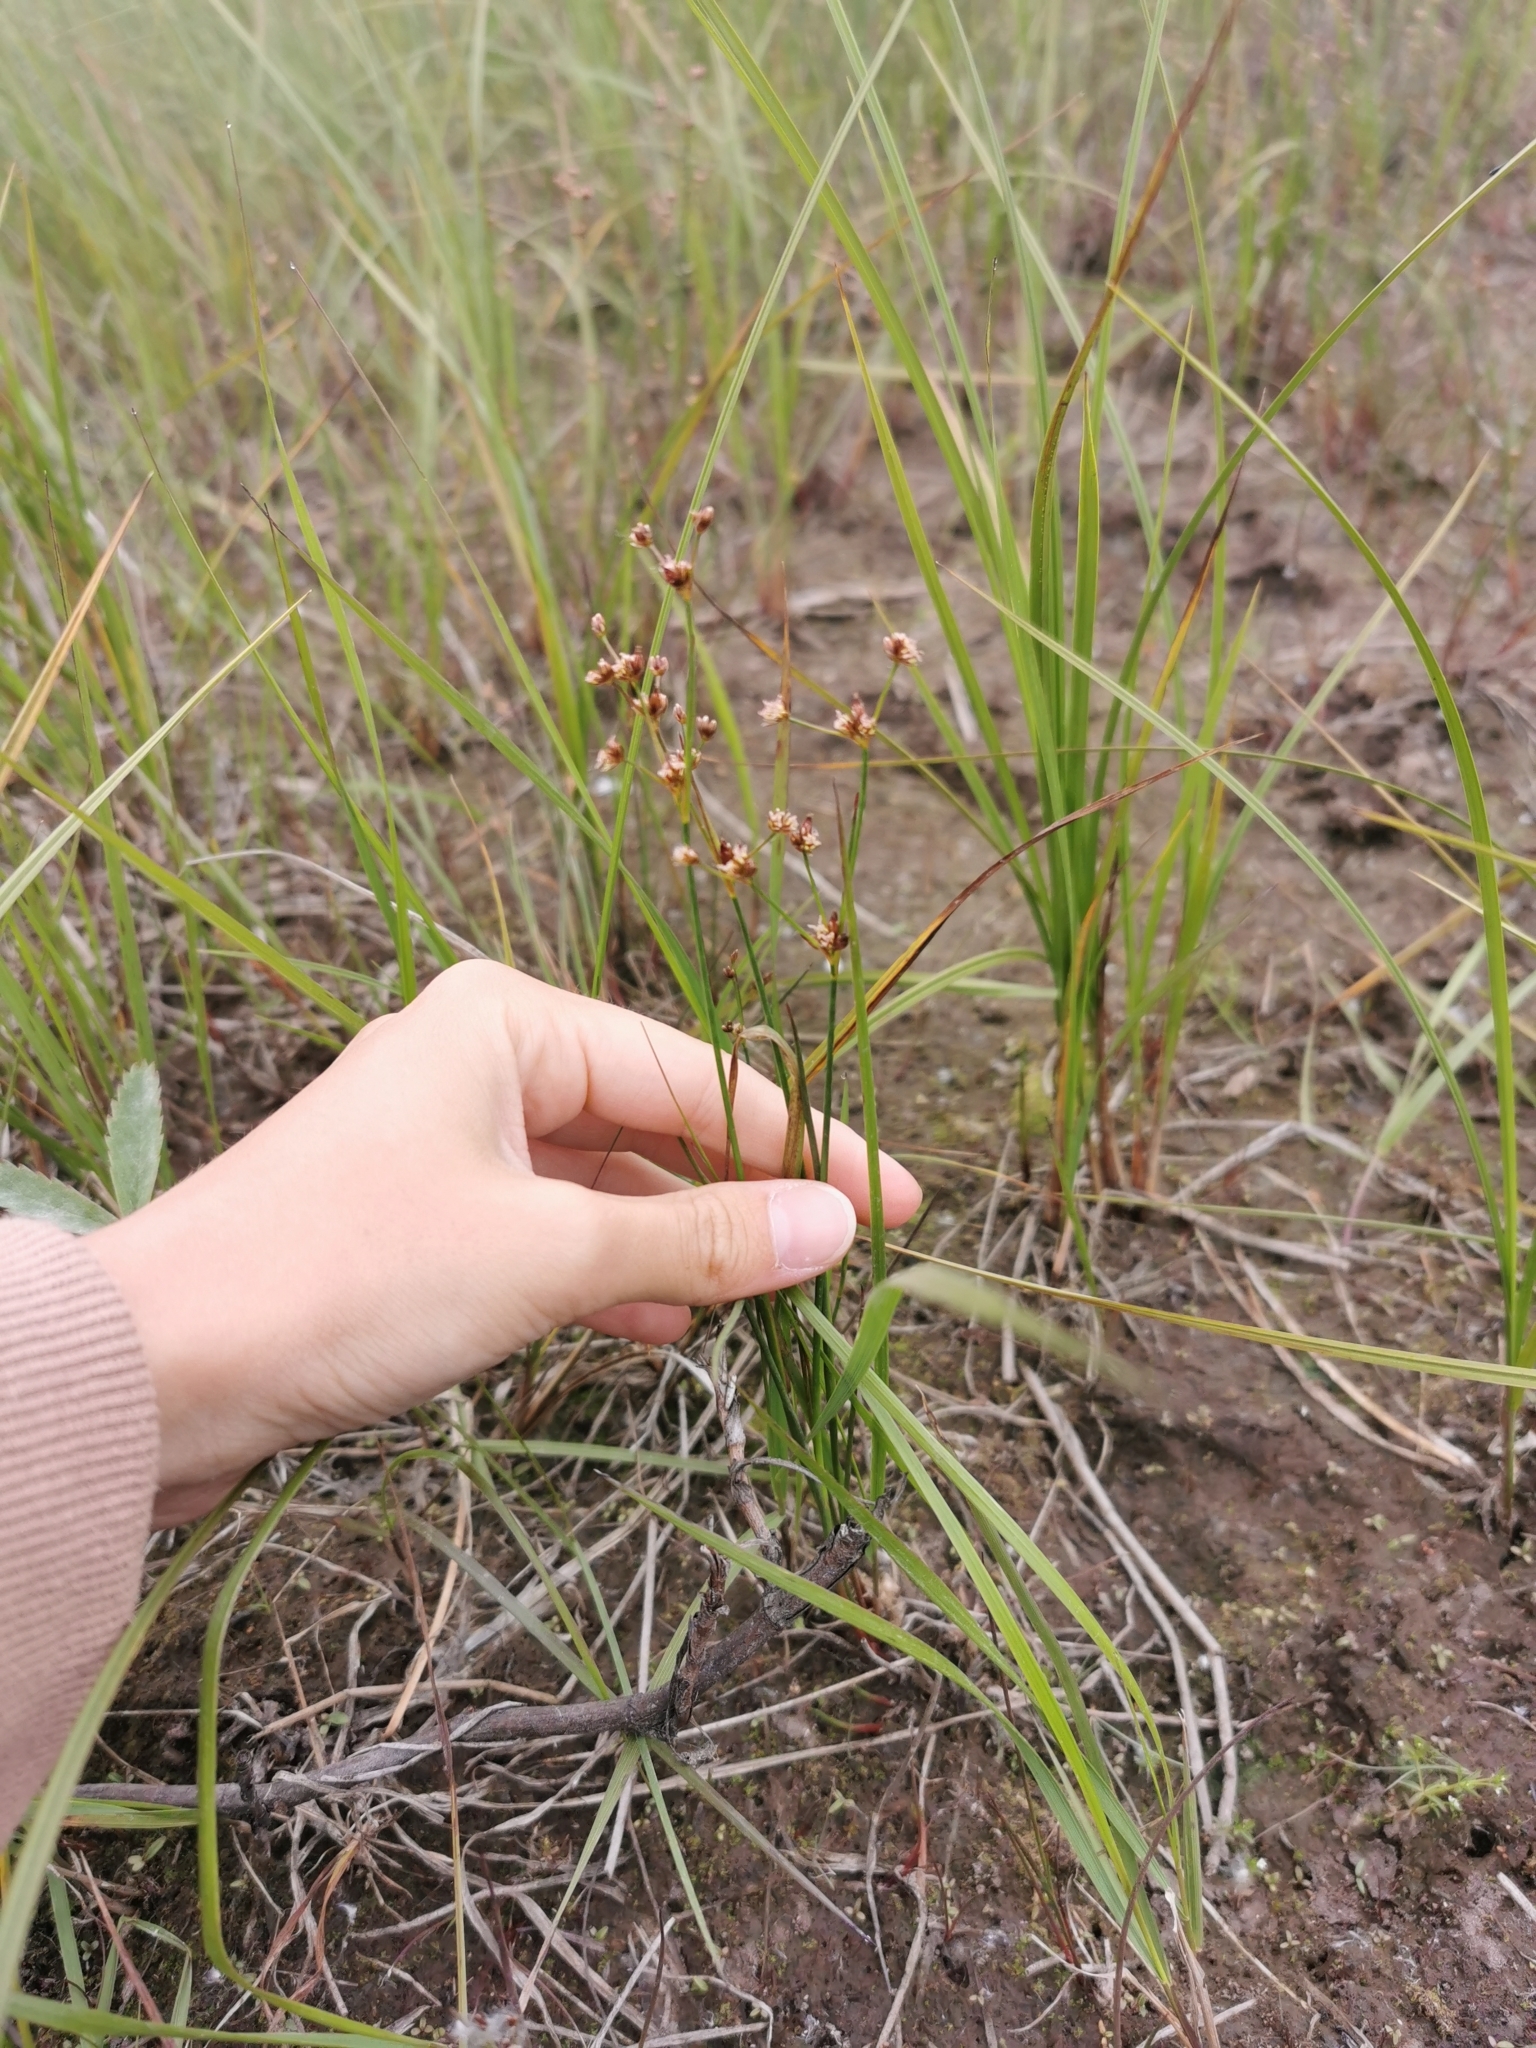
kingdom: Plantae
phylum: Tracheophyta
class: Liliopsida
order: Poales
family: Juncaceae
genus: Juncus
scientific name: Juncus articulatus
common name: Jointed rush
